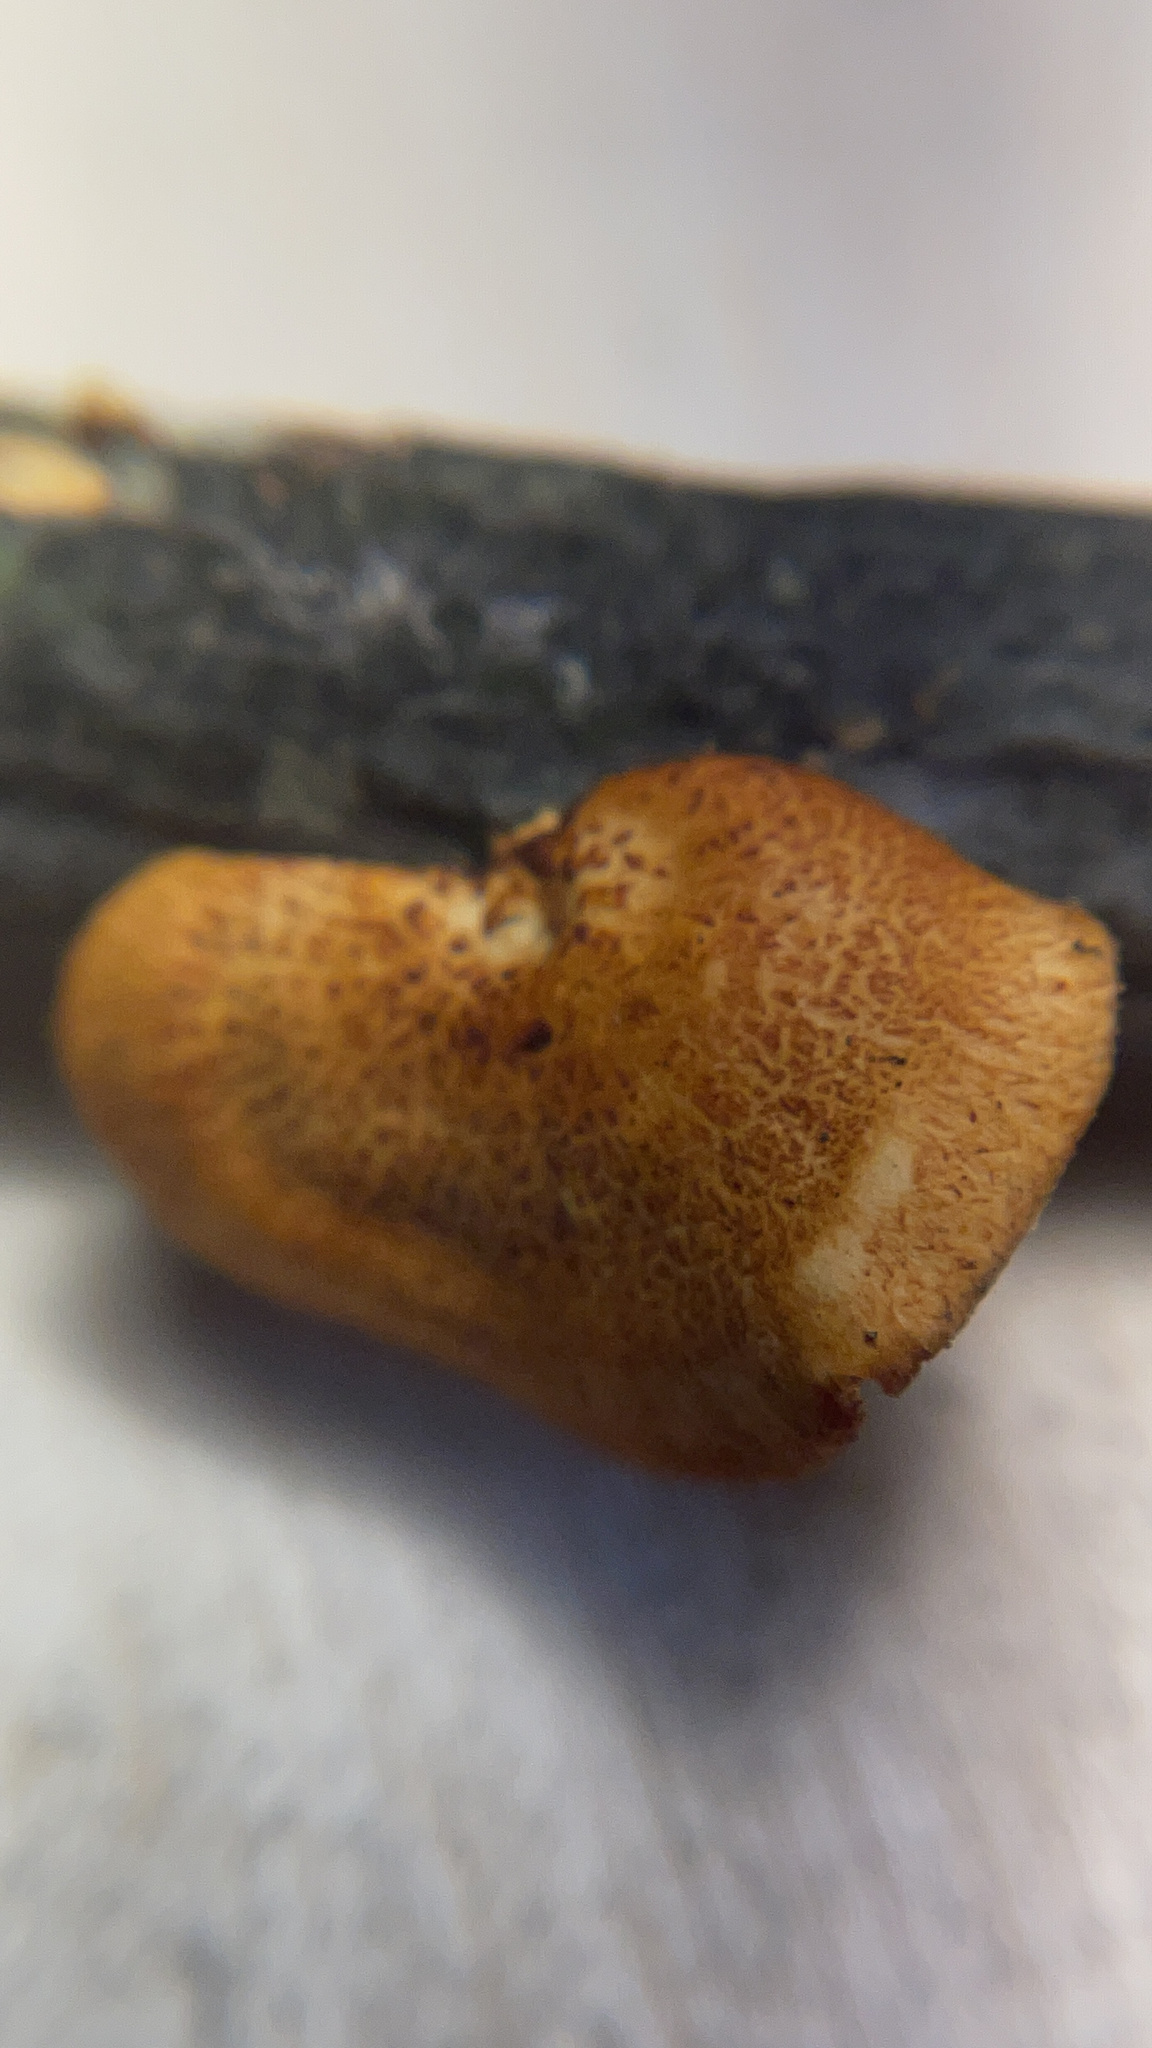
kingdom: Fungi
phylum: Basidiomycota
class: Agaricomycetes
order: Polyporales
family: Polyporaceae
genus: Neofavolus
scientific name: Neofavolus alveolaris
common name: Hexagonal-pored polypore
